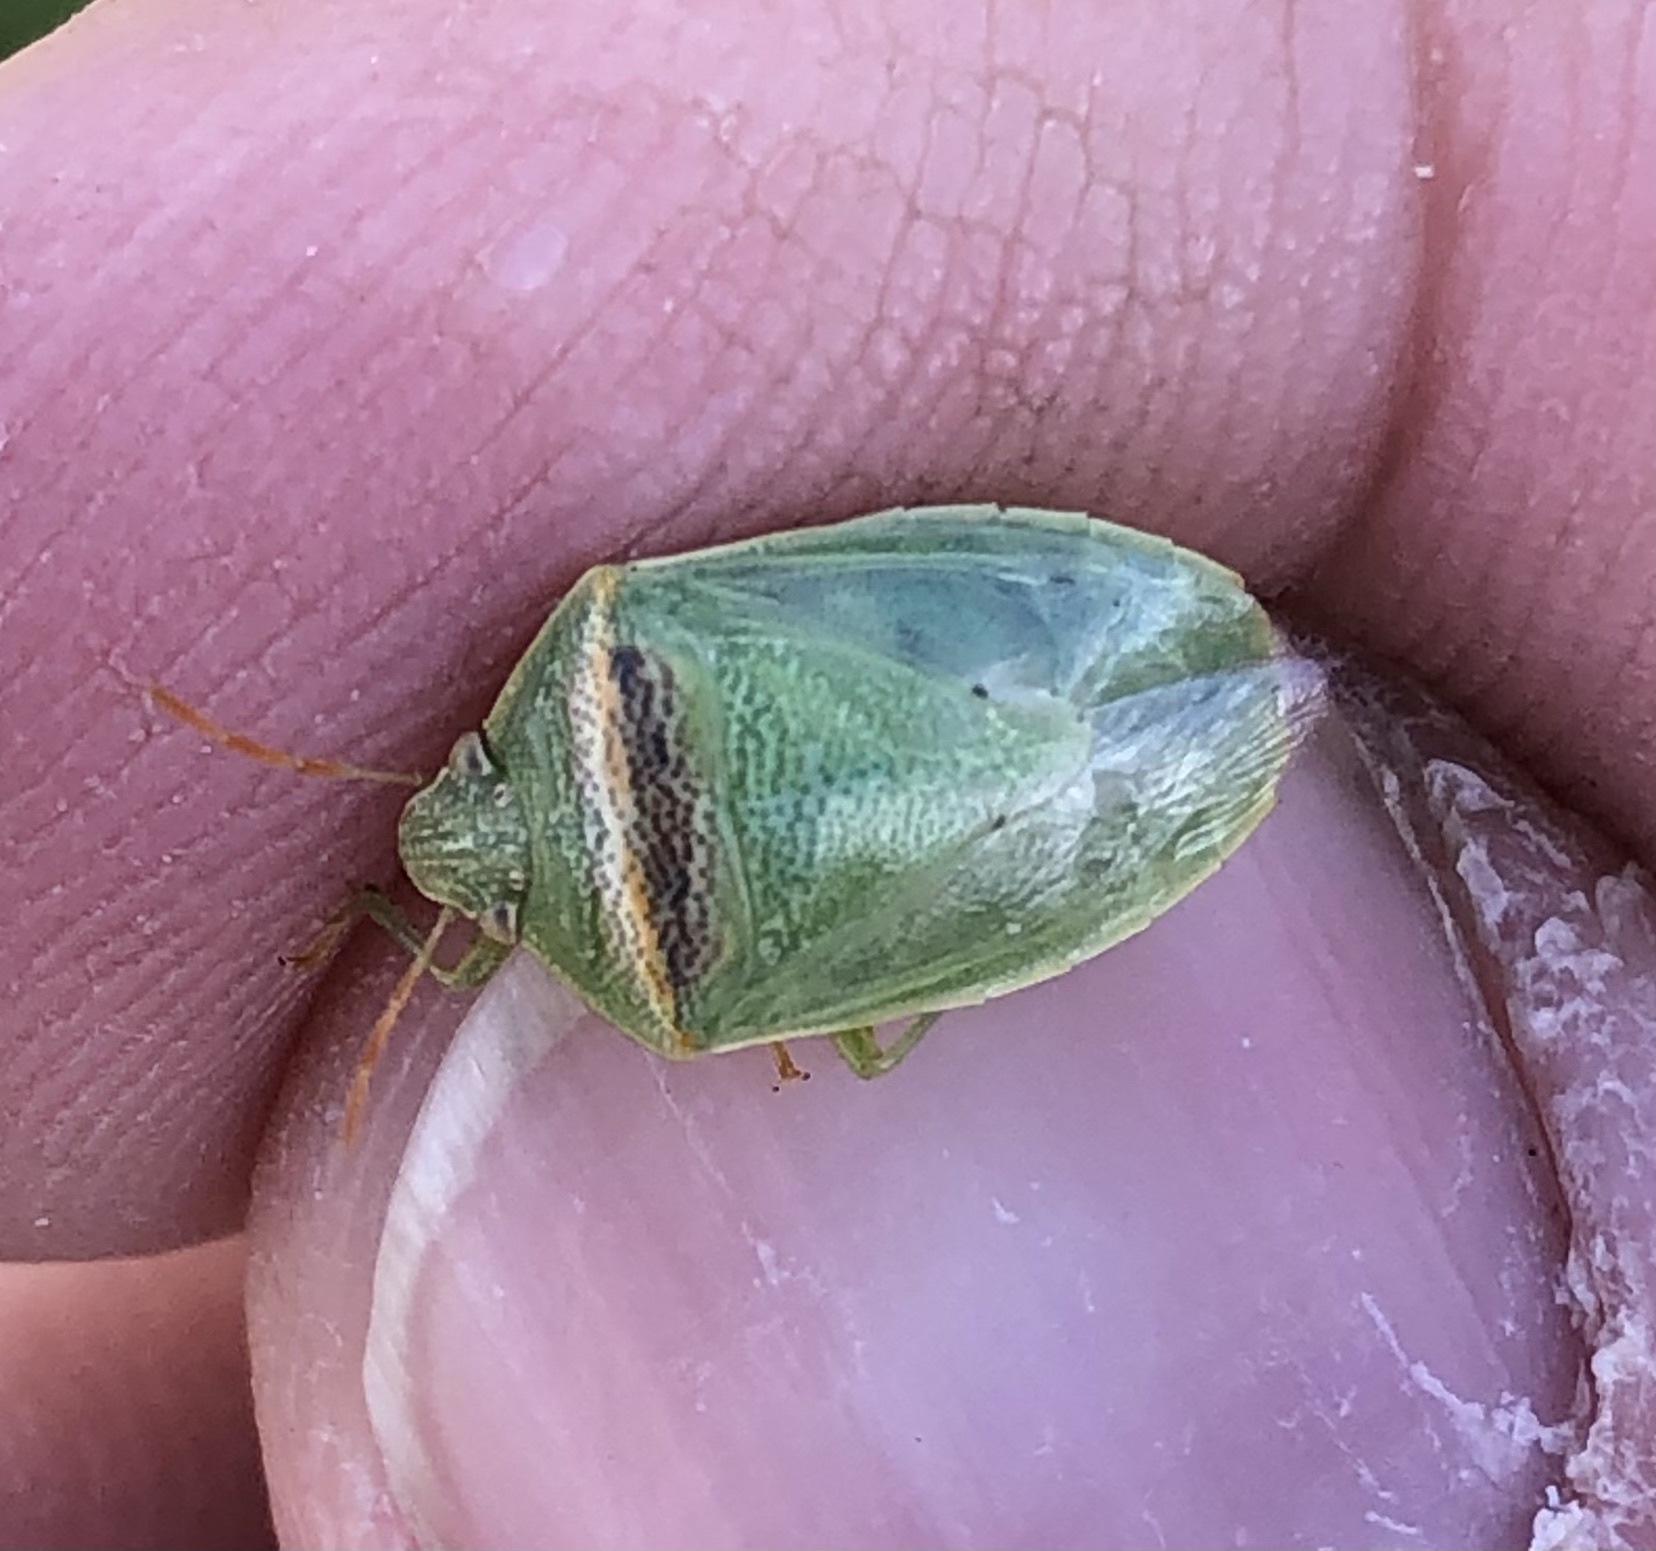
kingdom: Animalia
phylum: Arthropoda
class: Insecta
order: Hemiptera
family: Pentatomidae
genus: Piezodorus
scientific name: Piezodorus guildinii
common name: Redbanded stink bug
